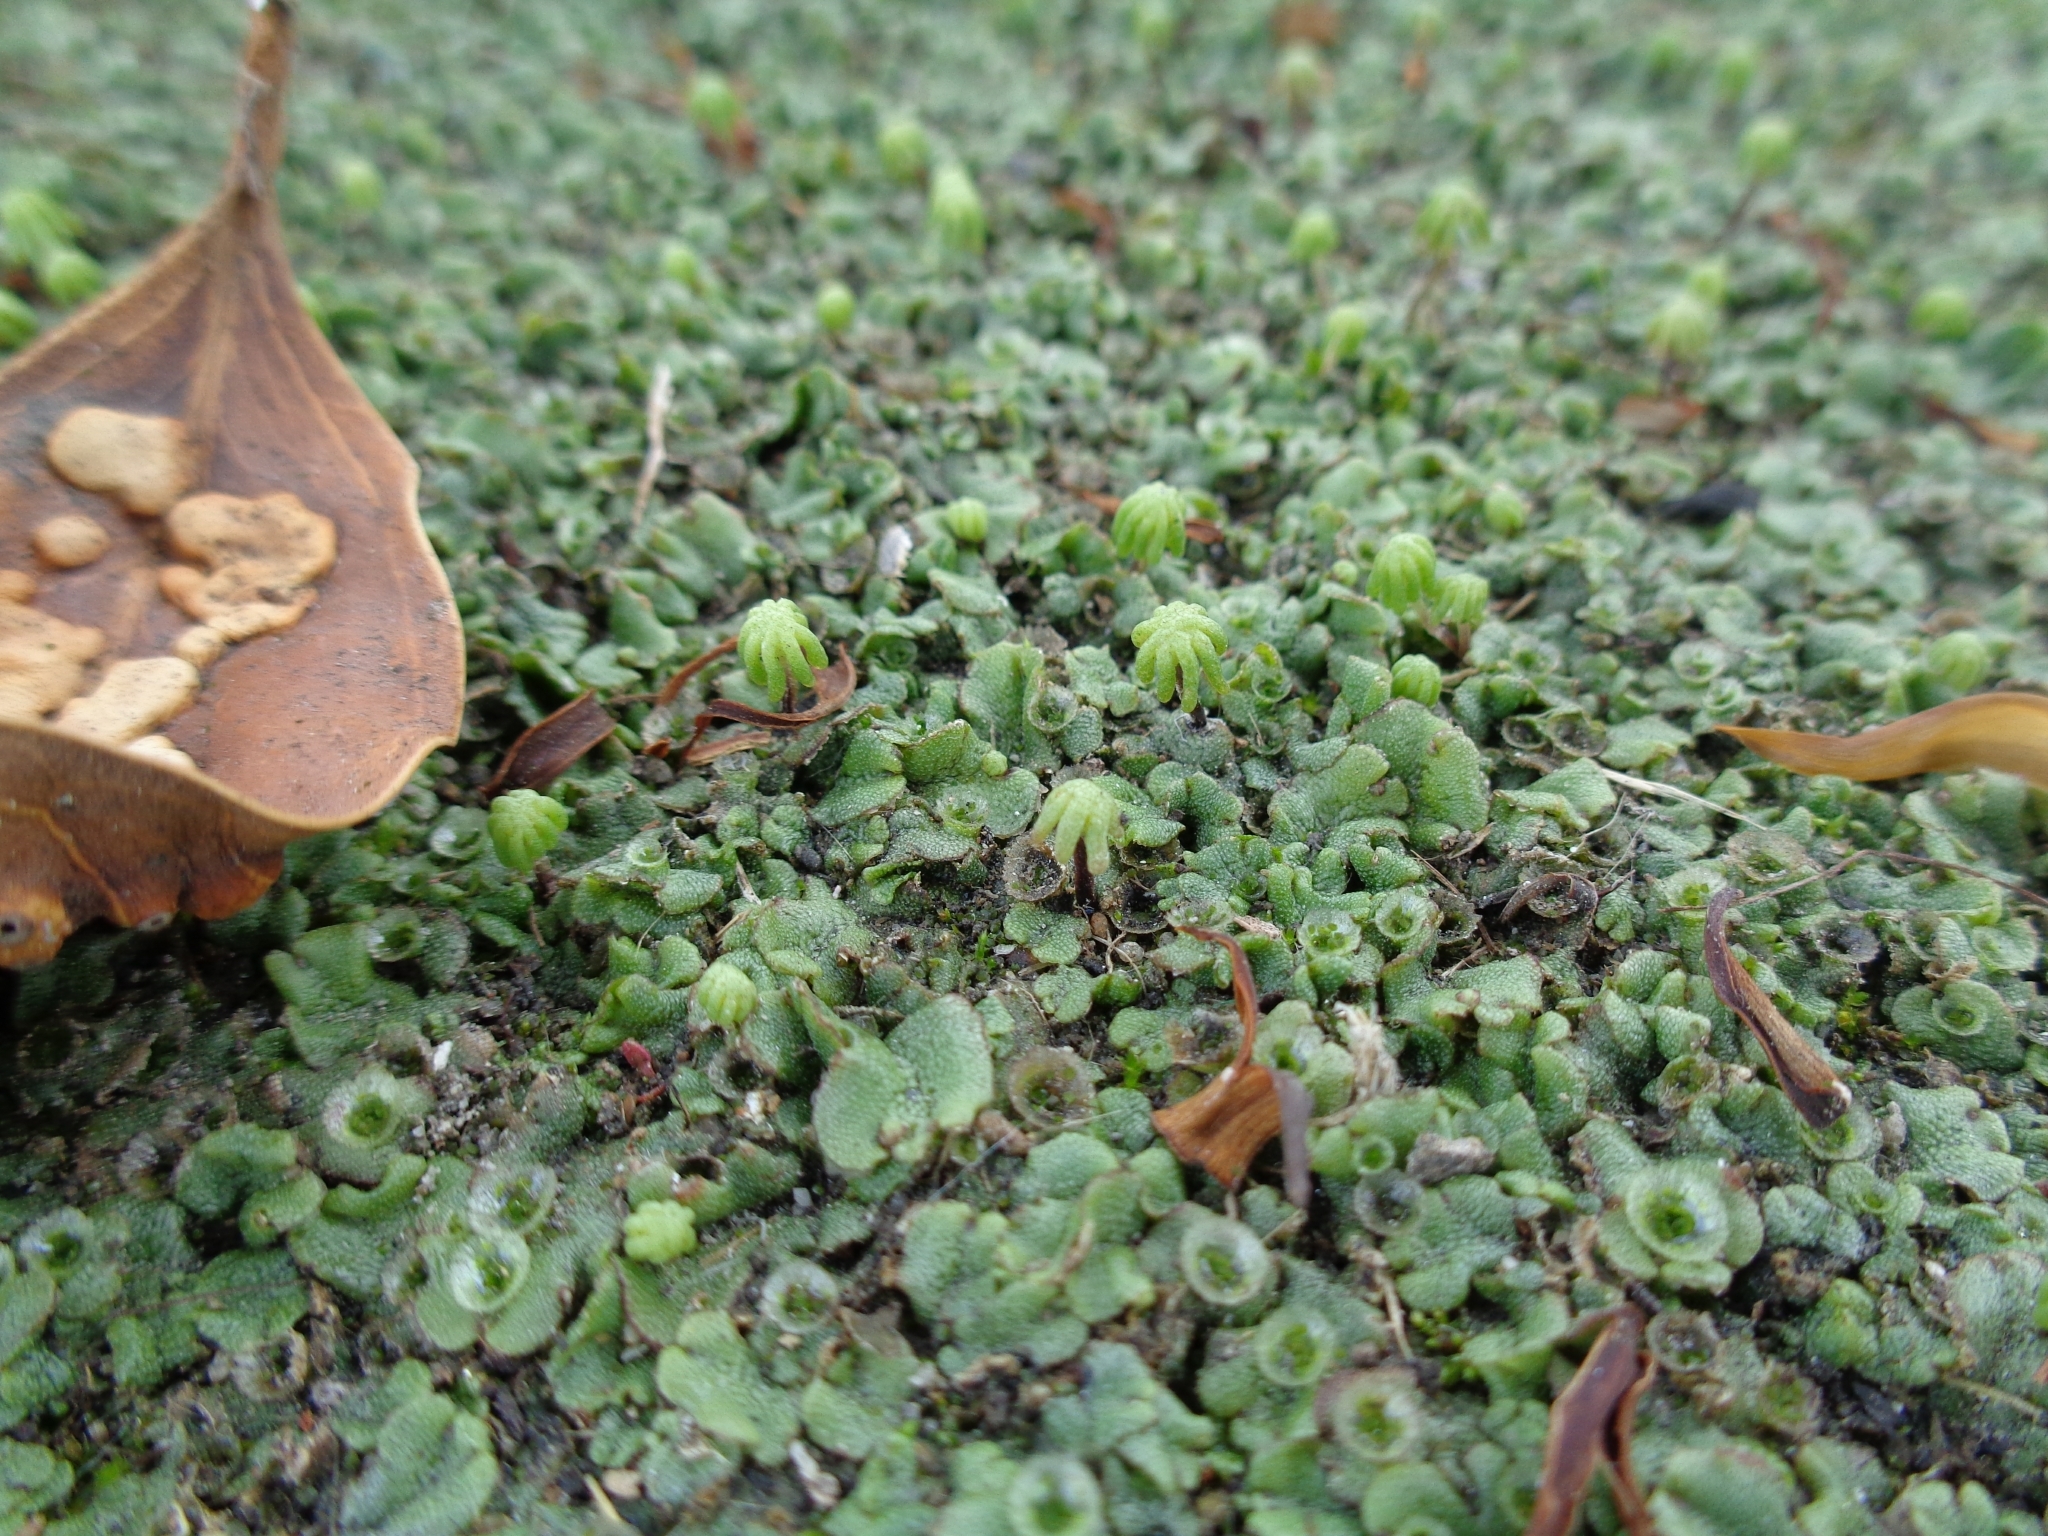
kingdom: Plantae
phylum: Marchantiophyta
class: Marchantiopsida
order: Marchantiales
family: Marchantiaceae
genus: Marchantia
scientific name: Marchantia polymorpha
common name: Common liverwort
